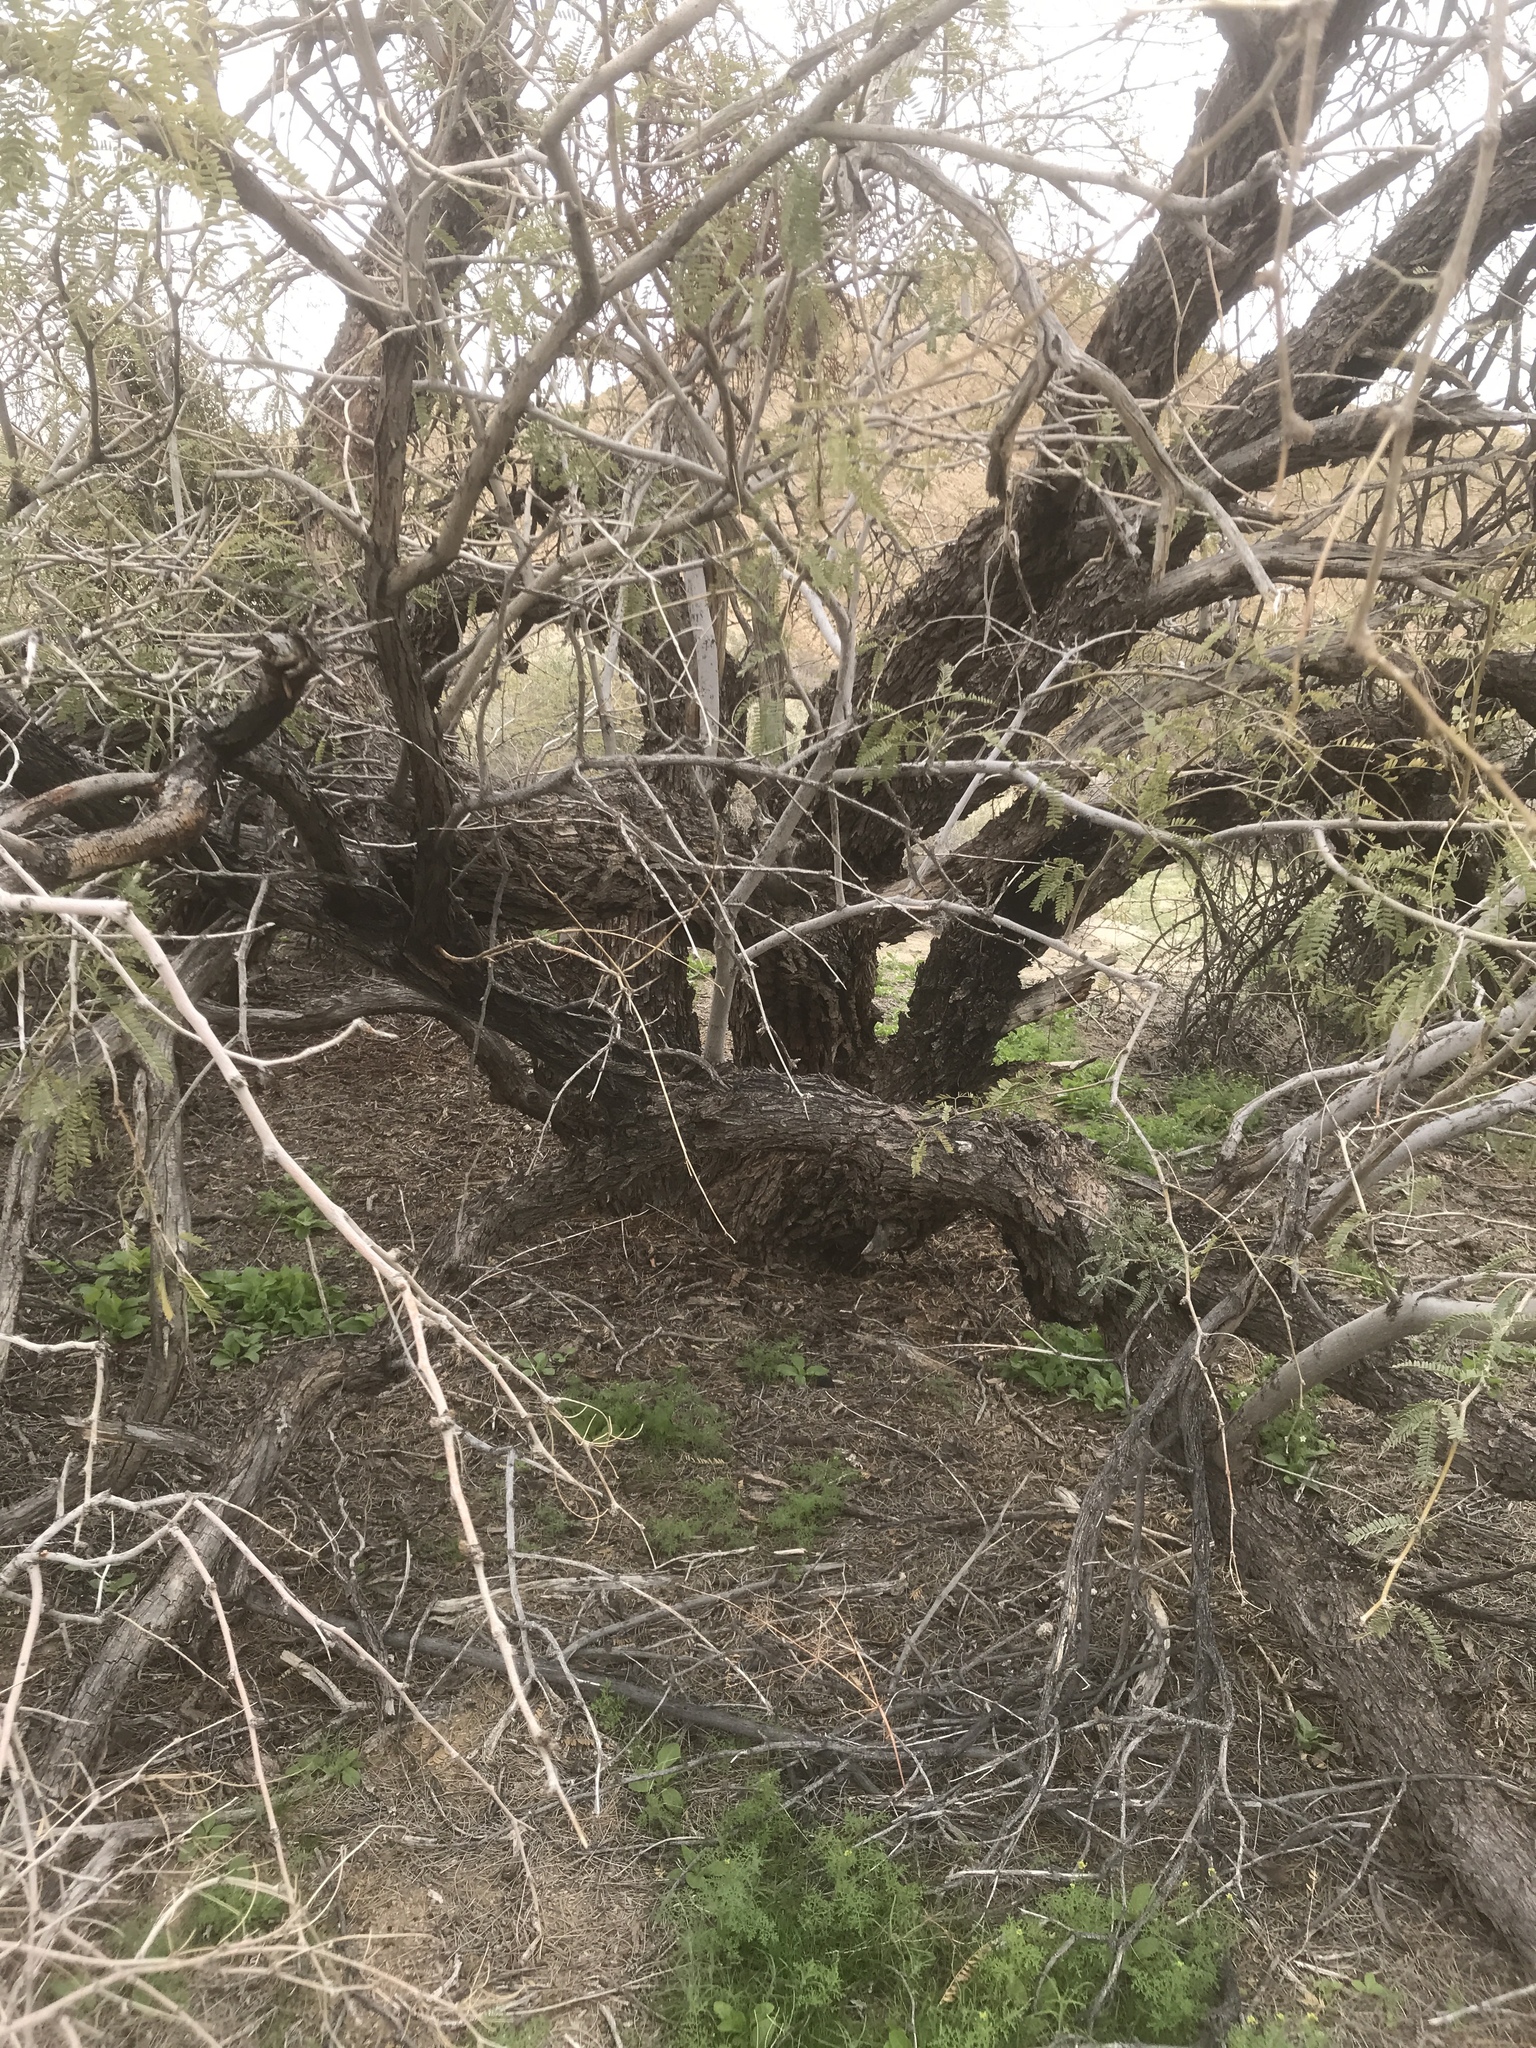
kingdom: Plantae
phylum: Tracheophyta
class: Magnoliopsida
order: Fabales
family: Fabaceae
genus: Prosopis
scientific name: Prosopis pubescens
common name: Screw-bean
